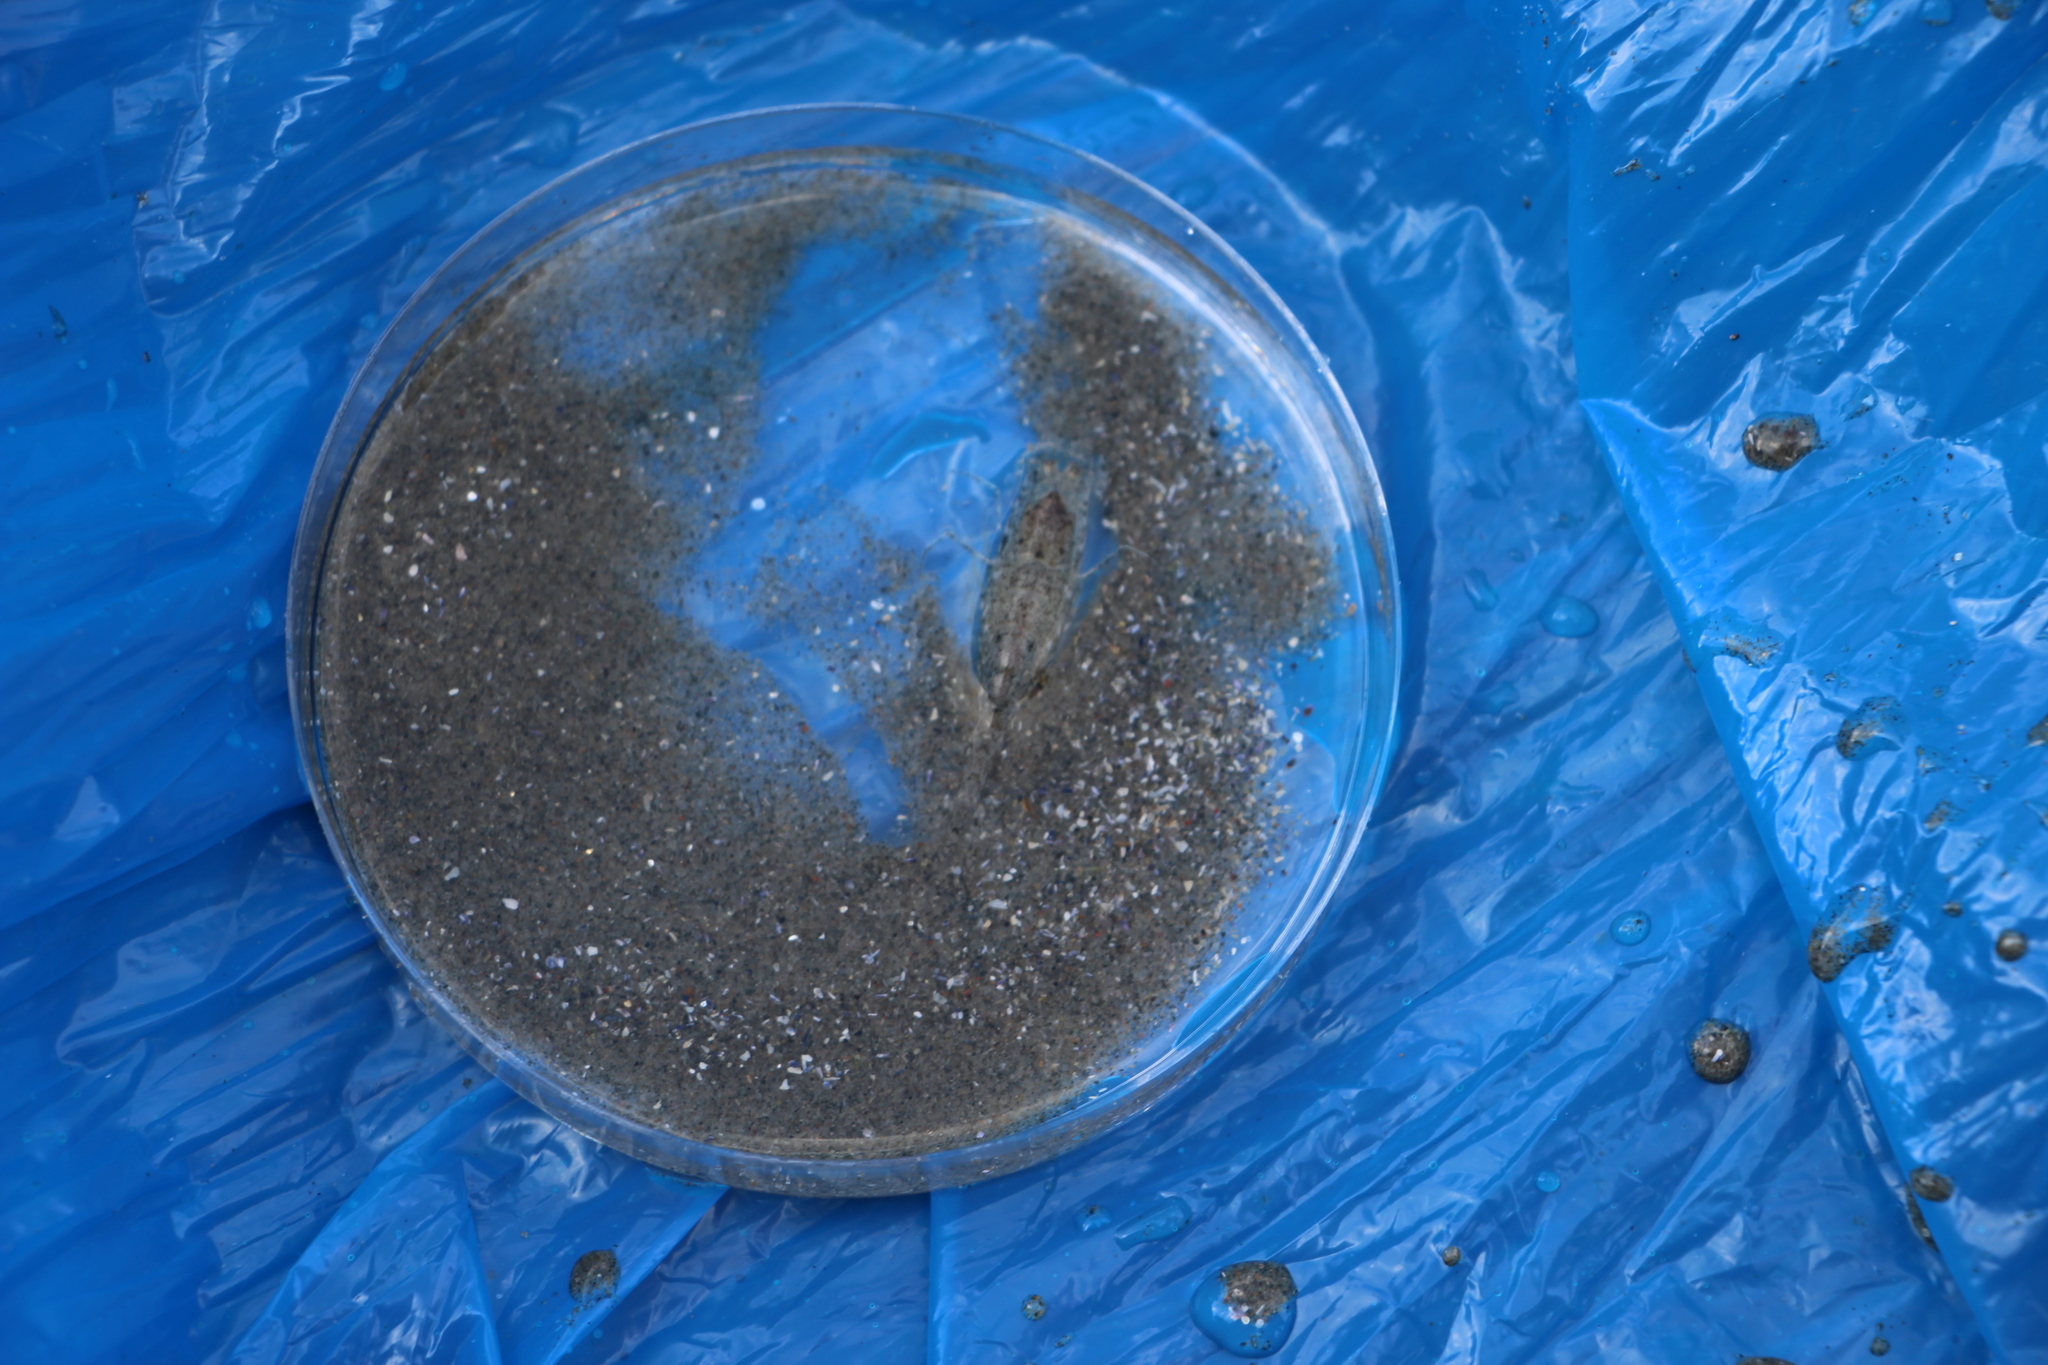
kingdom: Animalia
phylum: Arthropoda
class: Malacostraca
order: Decapoda
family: Crangonidae
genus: Crangon
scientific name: Crangon septemspinosa
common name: Bail shrimp
